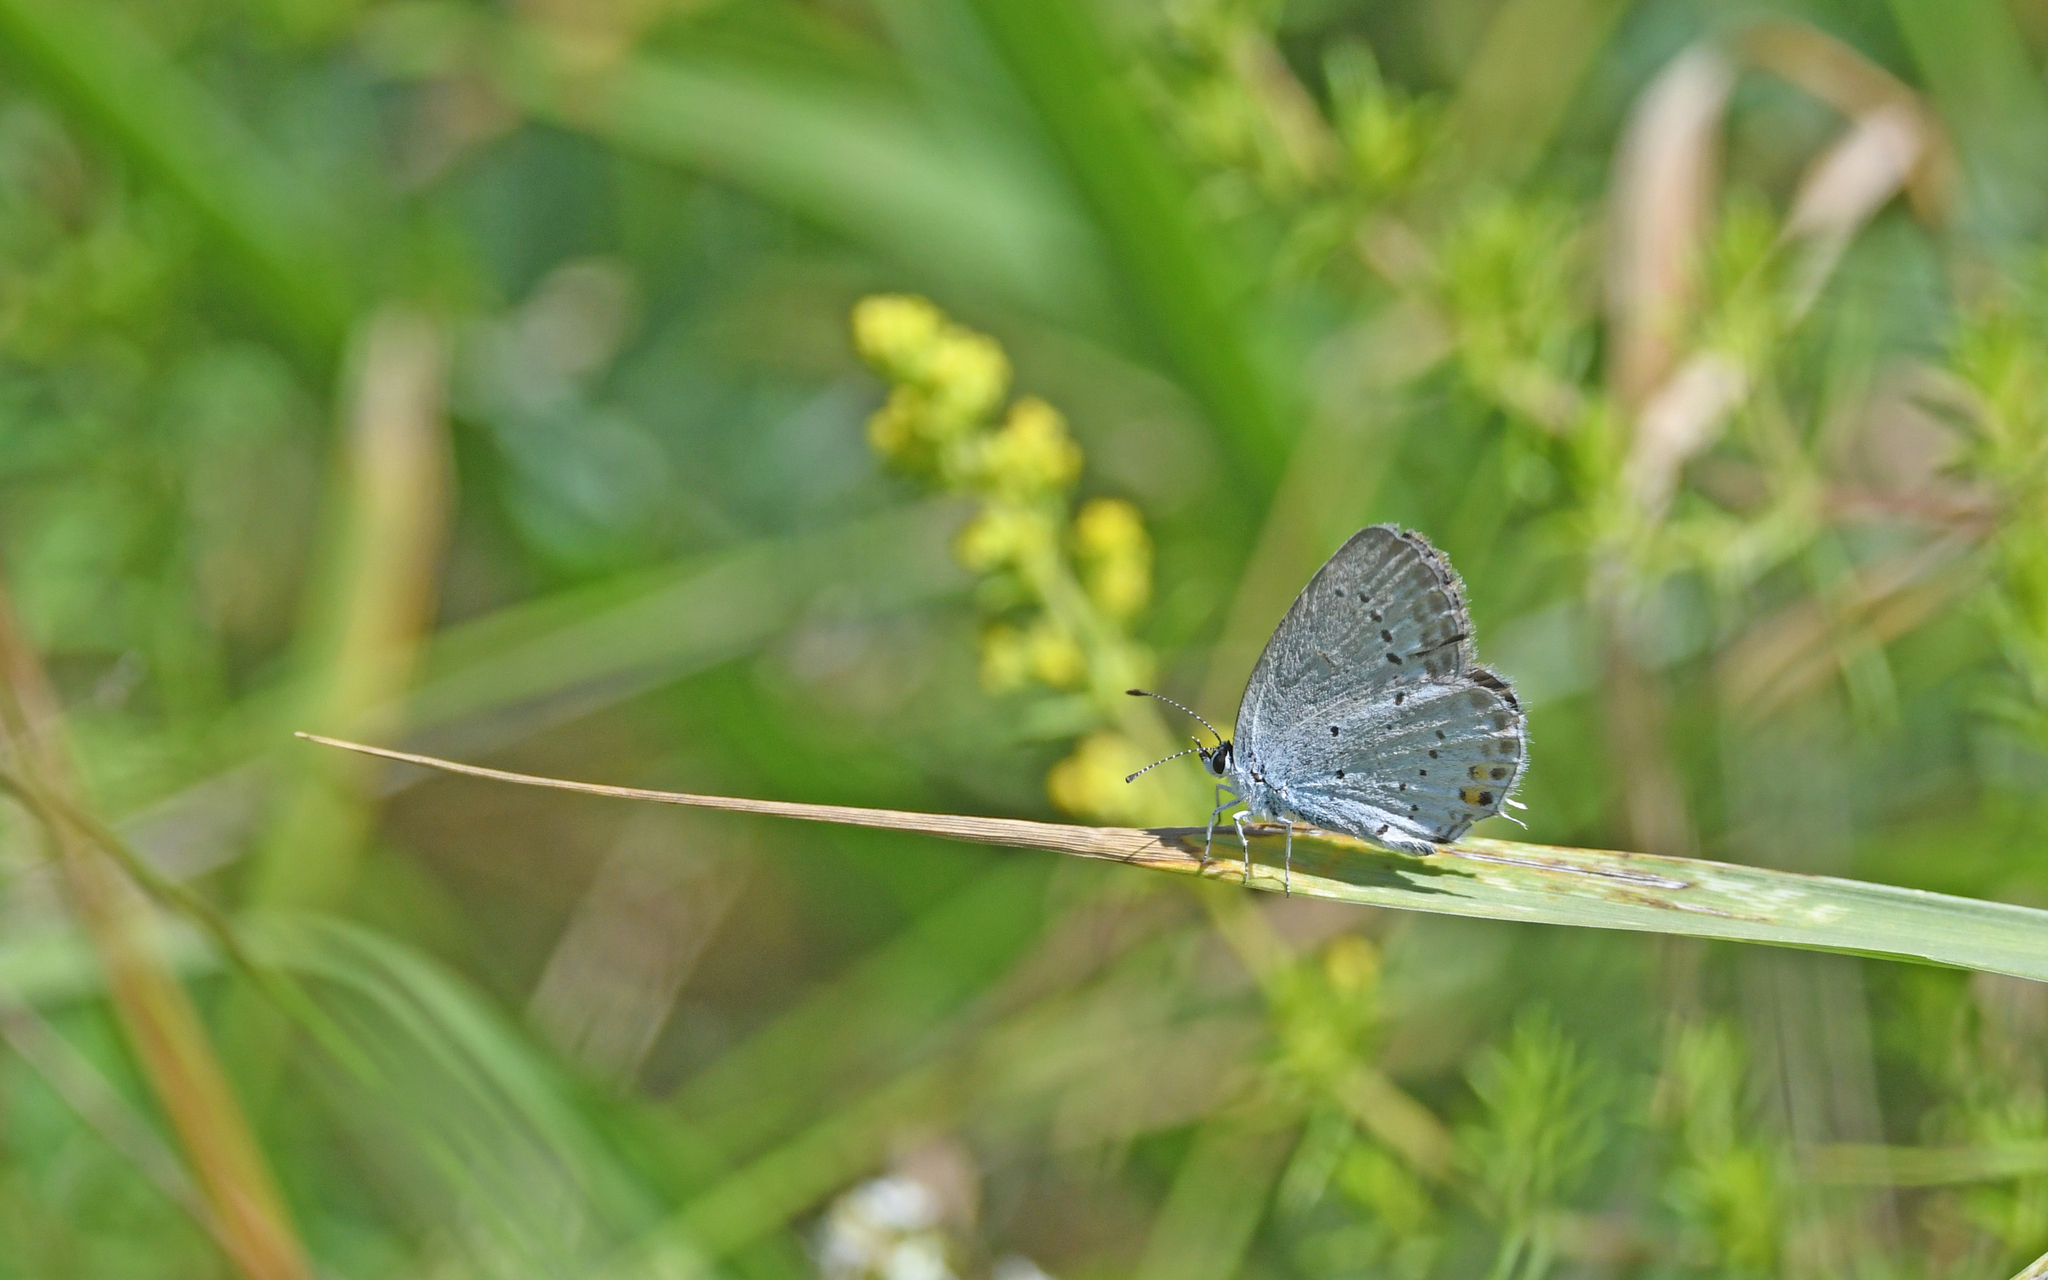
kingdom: Animalia
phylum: Arthropoda
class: Insecta
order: Lepidoptera
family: Lycaenidae
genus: Elkalyce
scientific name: Elkalyce argiades
